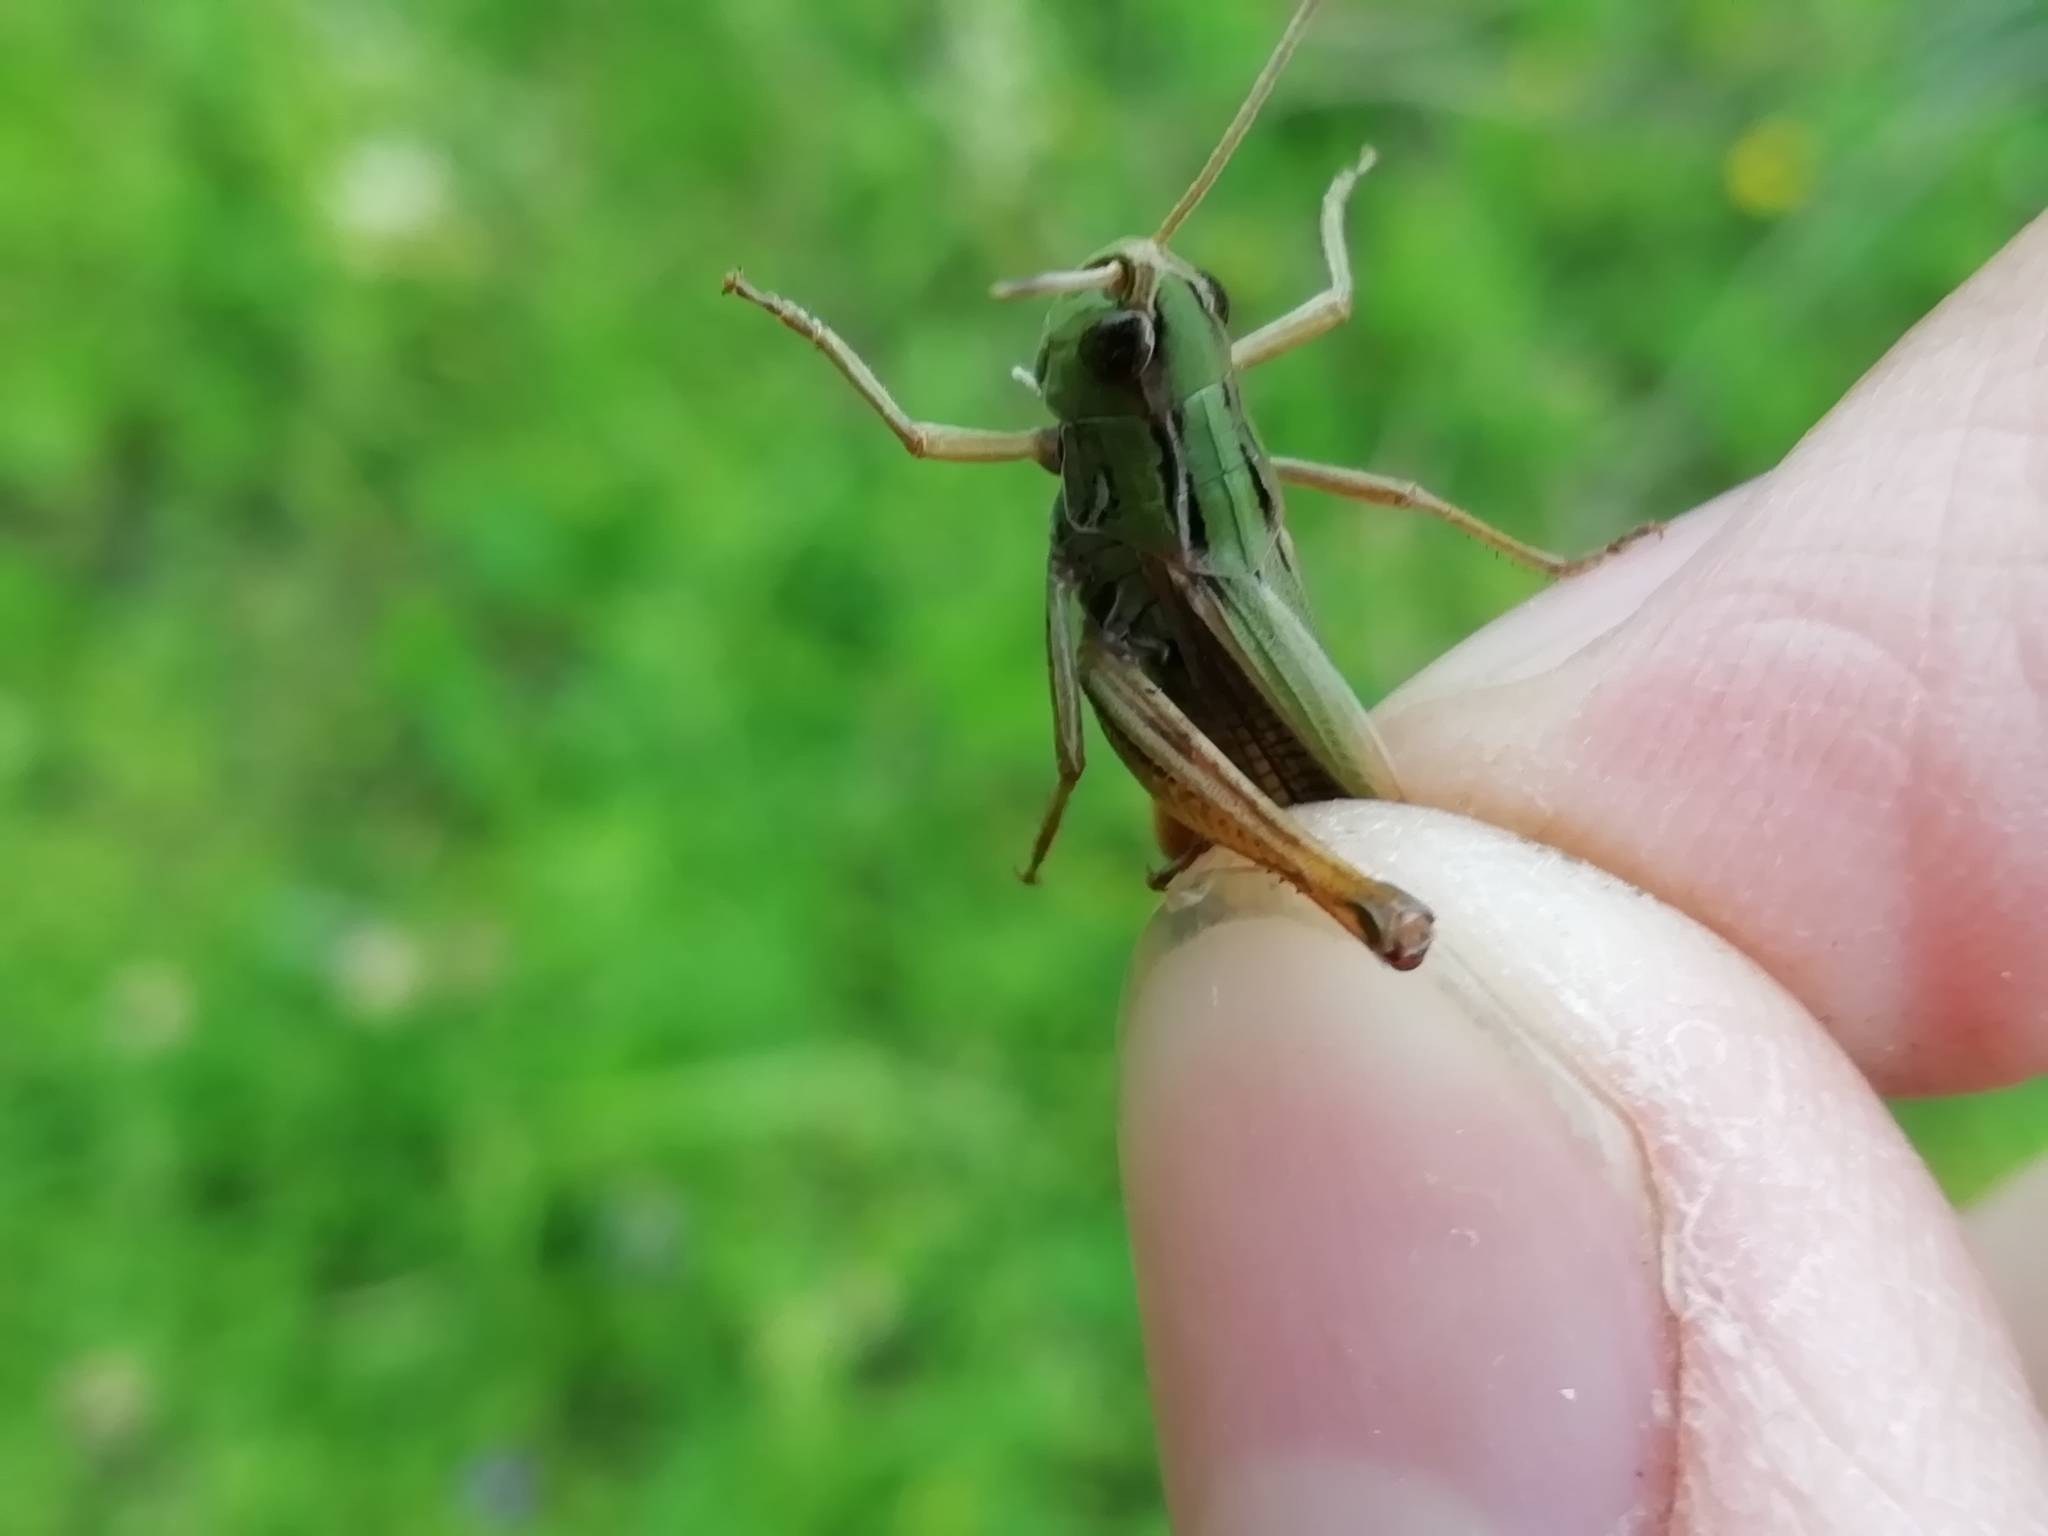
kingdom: Animalia
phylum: Arthropoda
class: Insecta
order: Orthoptera
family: Acrididae
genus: Stenobothrus
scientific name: Stenobothrus lineatus
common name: Stripe-winged grasshopper
